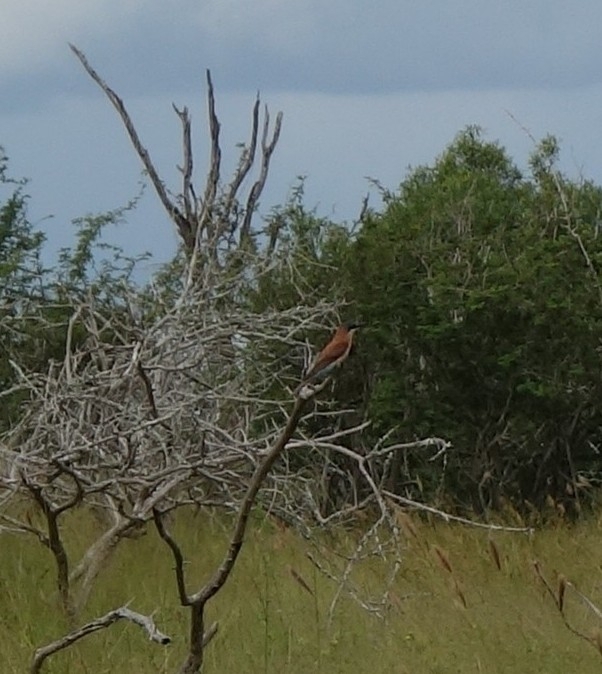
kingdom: Animalia
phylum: Chordata
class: Aves
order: Coraciiformes
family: Meropidae
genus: Merops
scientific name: Merops apiaster
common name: European bee-eater
